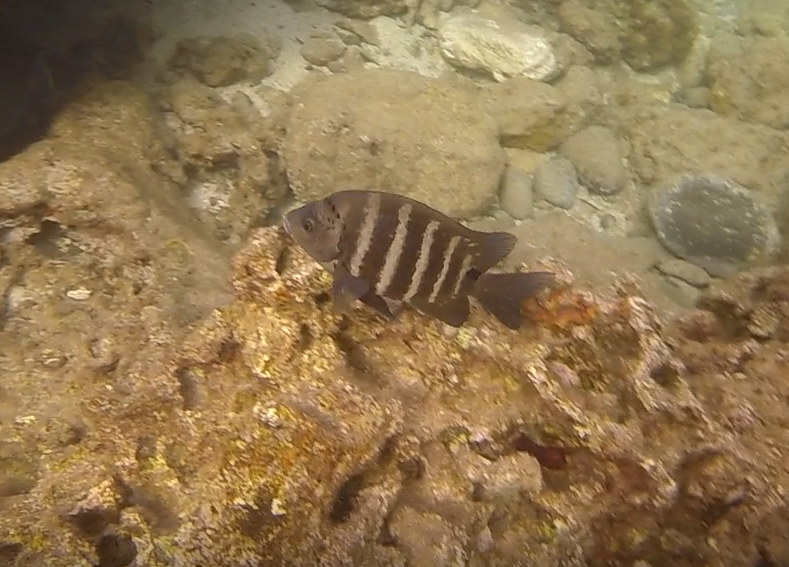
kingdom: Animalia
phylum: Chordata
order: Perciformes
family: Pomacentridae
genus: Abudefduf
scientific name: Abudefduf sordidus
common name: Blackspot sergeant
